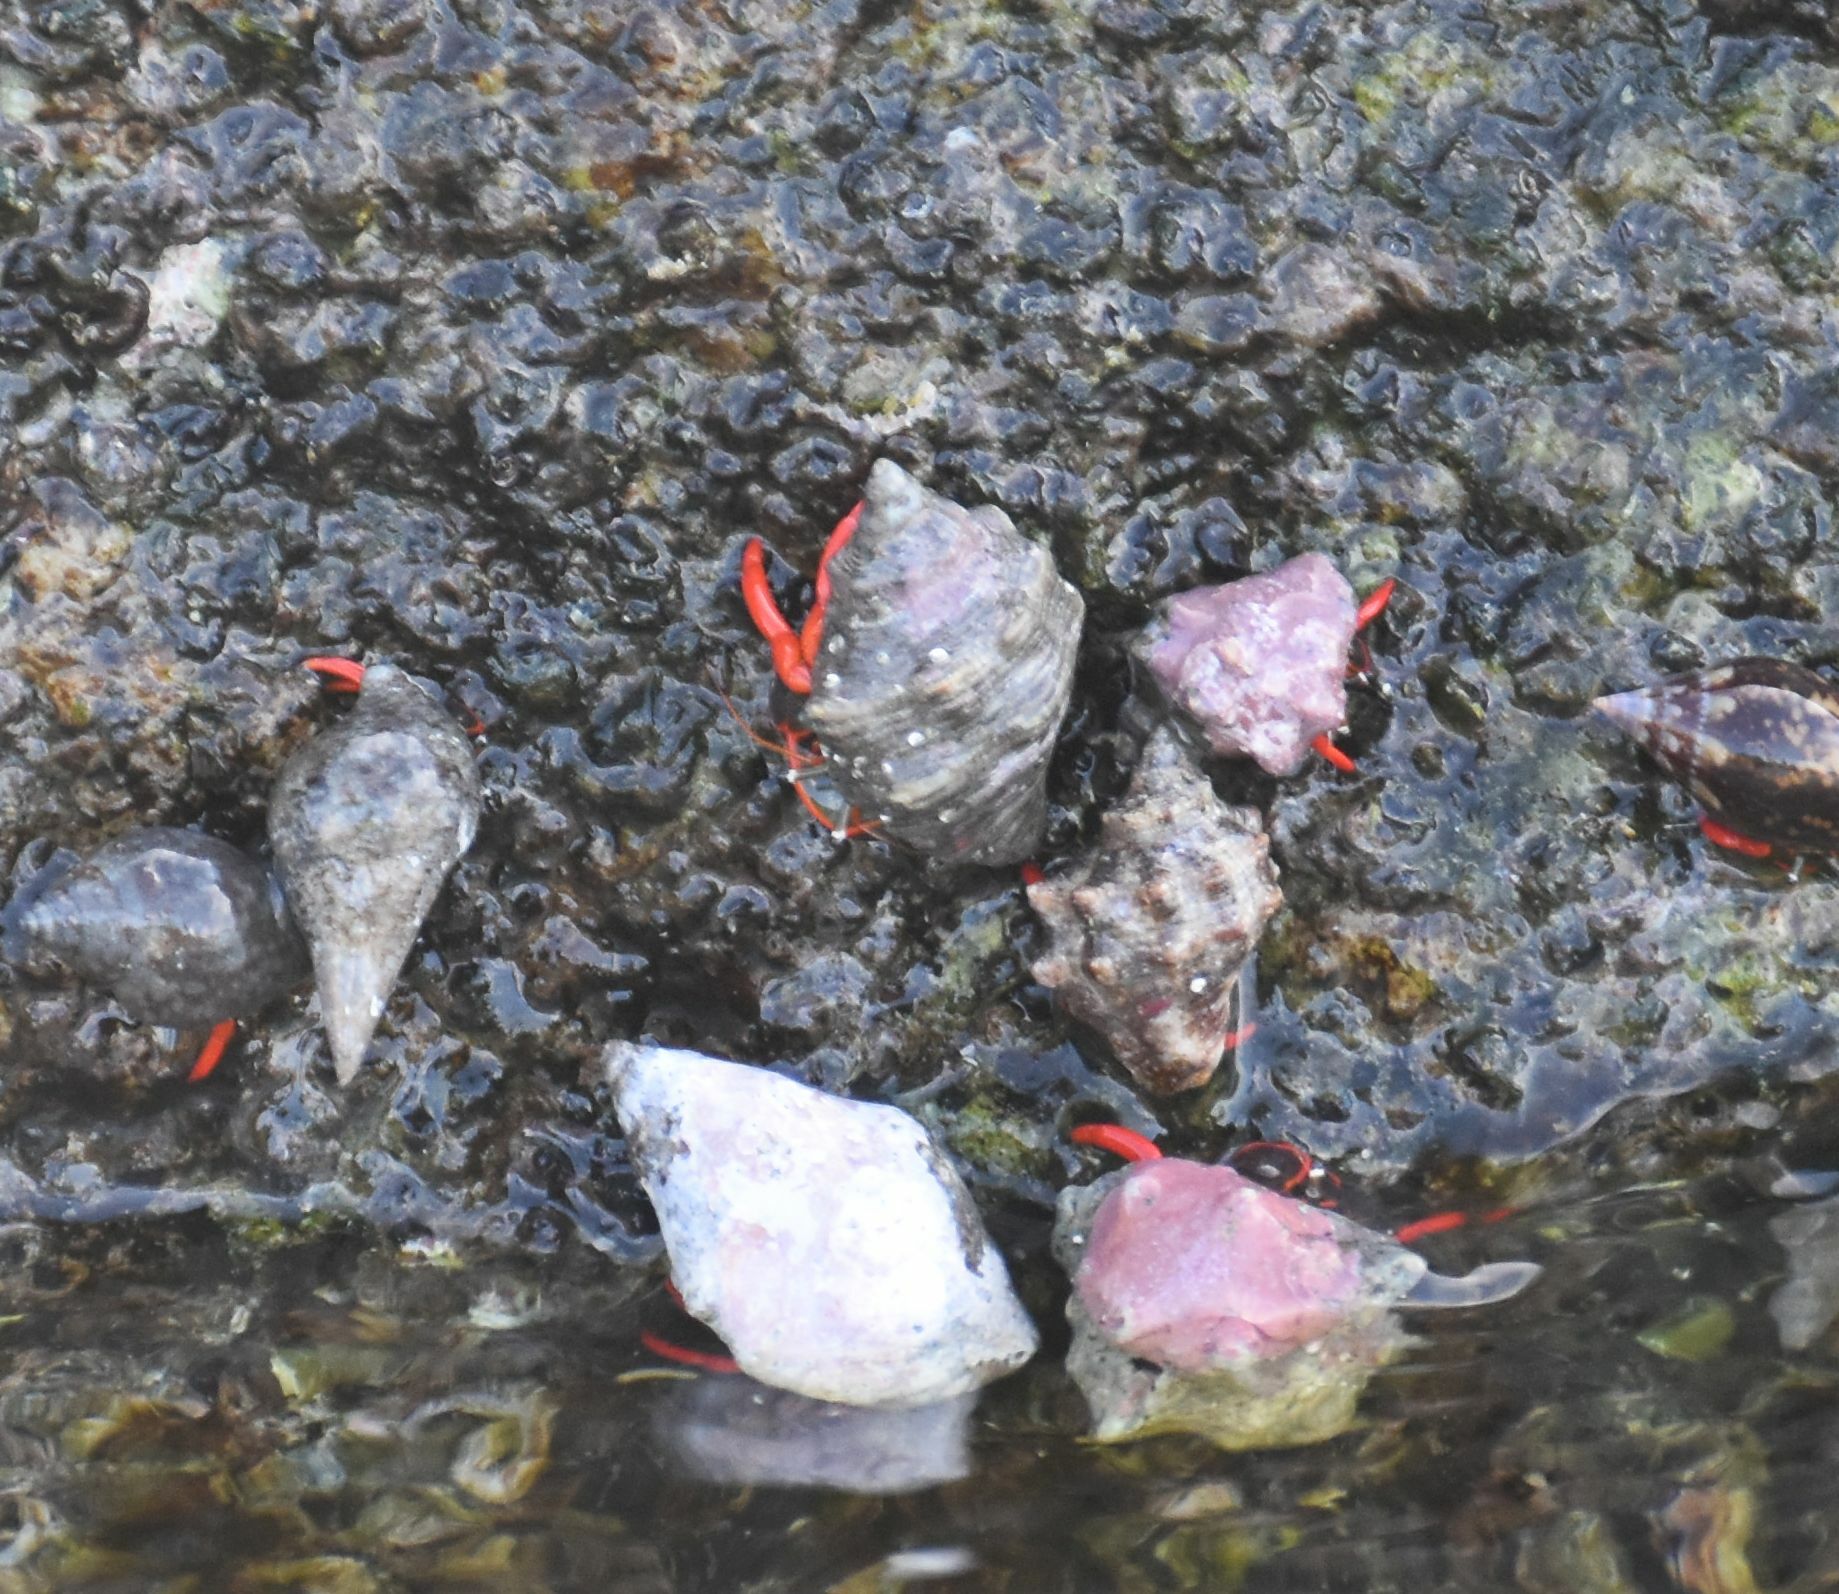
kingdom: Animalia
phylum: Arthropoda
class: Malacostraca
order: Decapoda
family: Diogenidae
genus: Calcinus
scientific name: Calcinus californiensis
